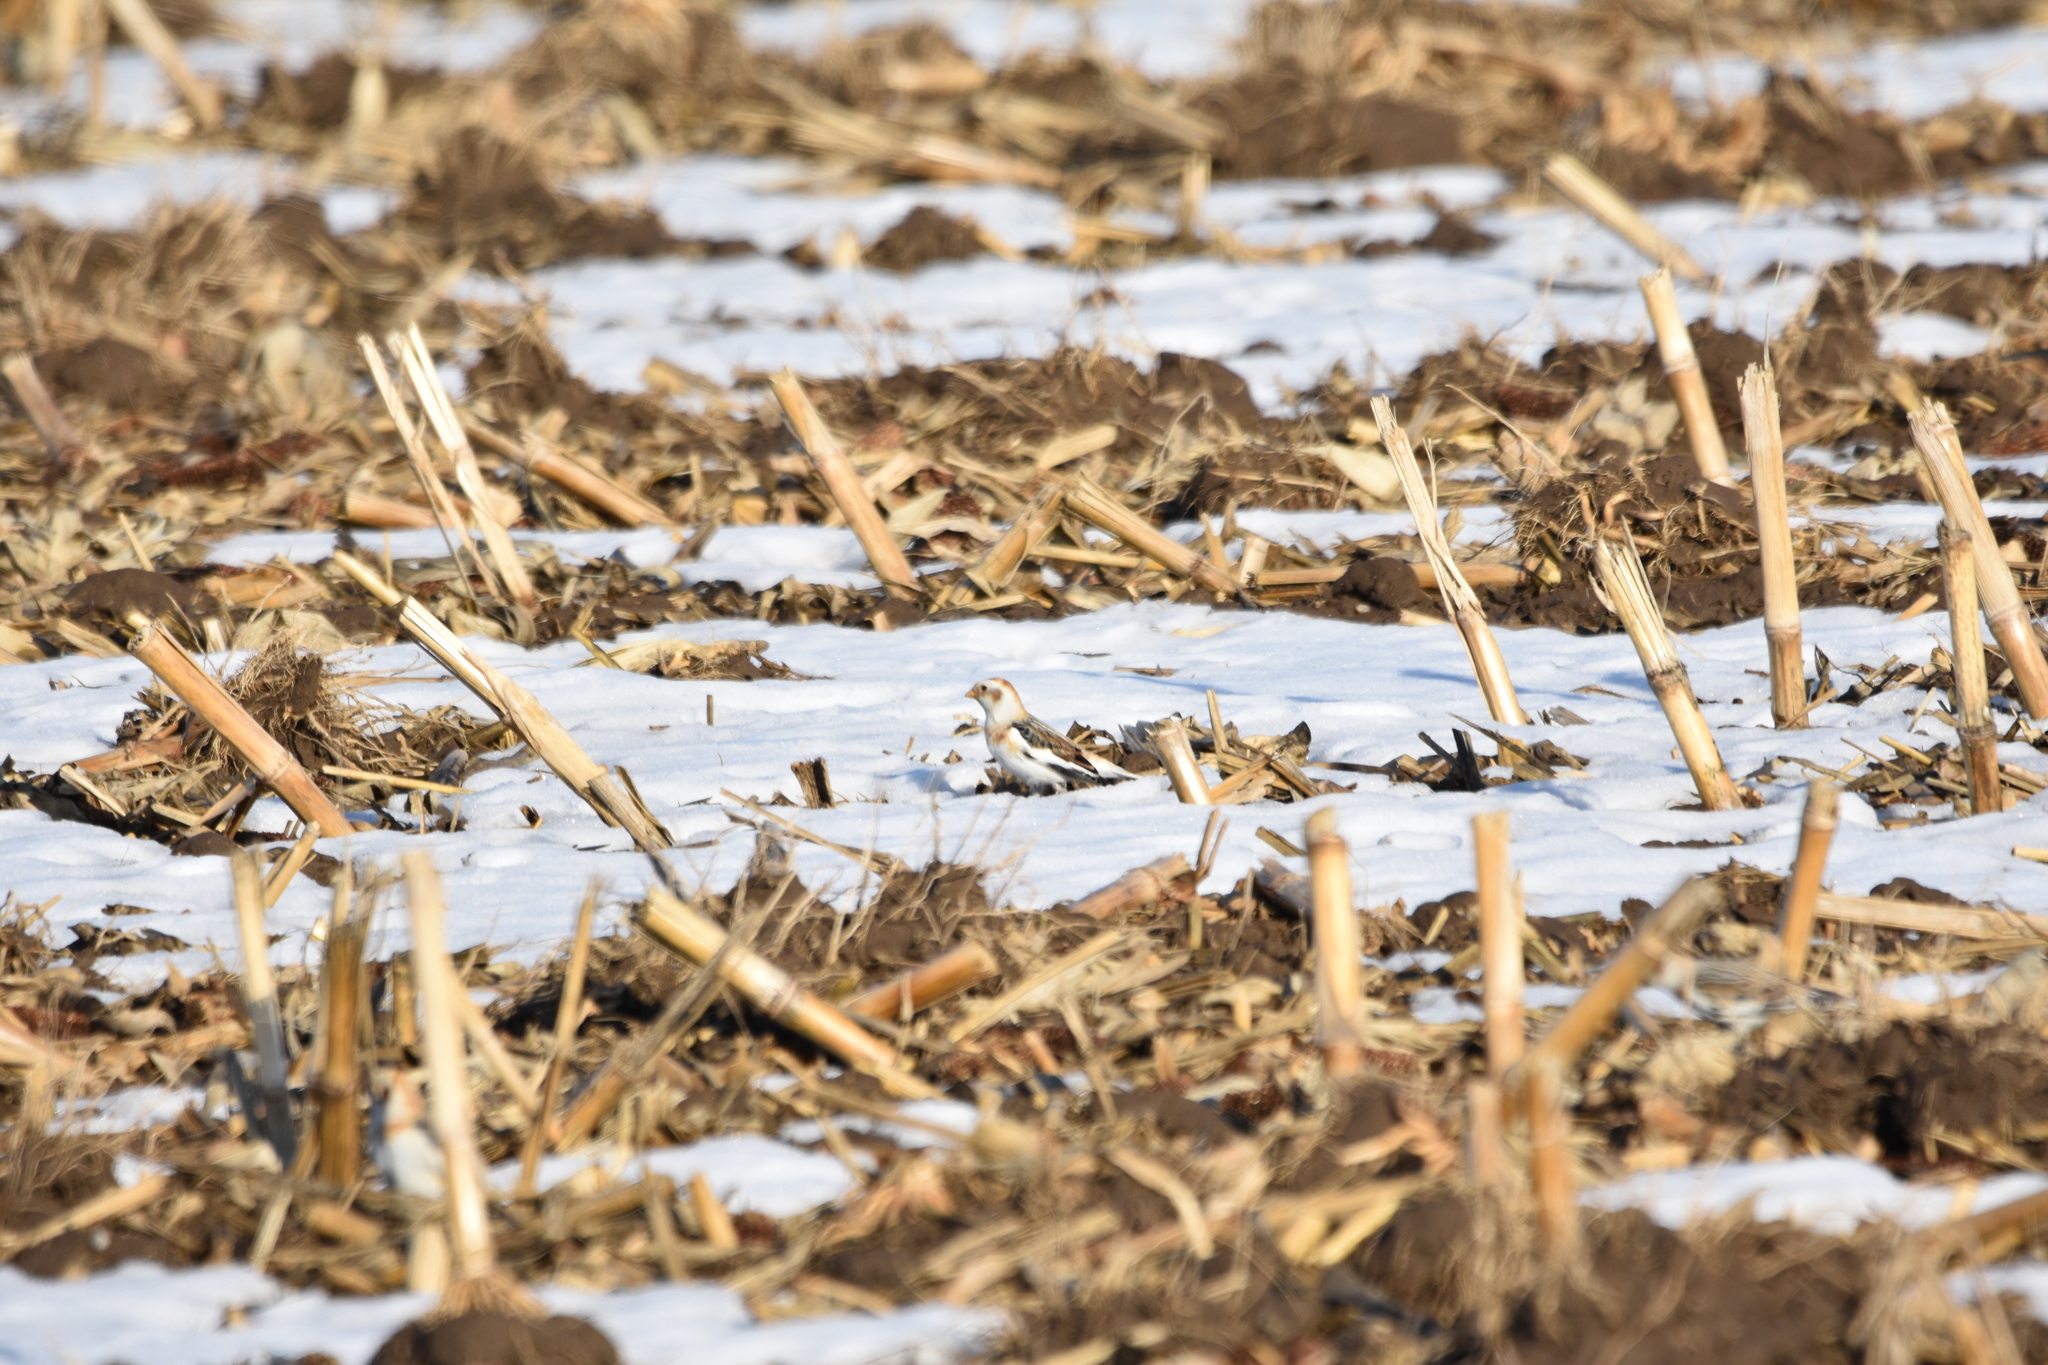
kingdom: Animalia
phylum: Chordata
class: Aves
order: Passeriformes
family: Calcariidae
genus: Plectrophenax
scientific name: Plectrophenax nivalis
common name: Snow bunting
